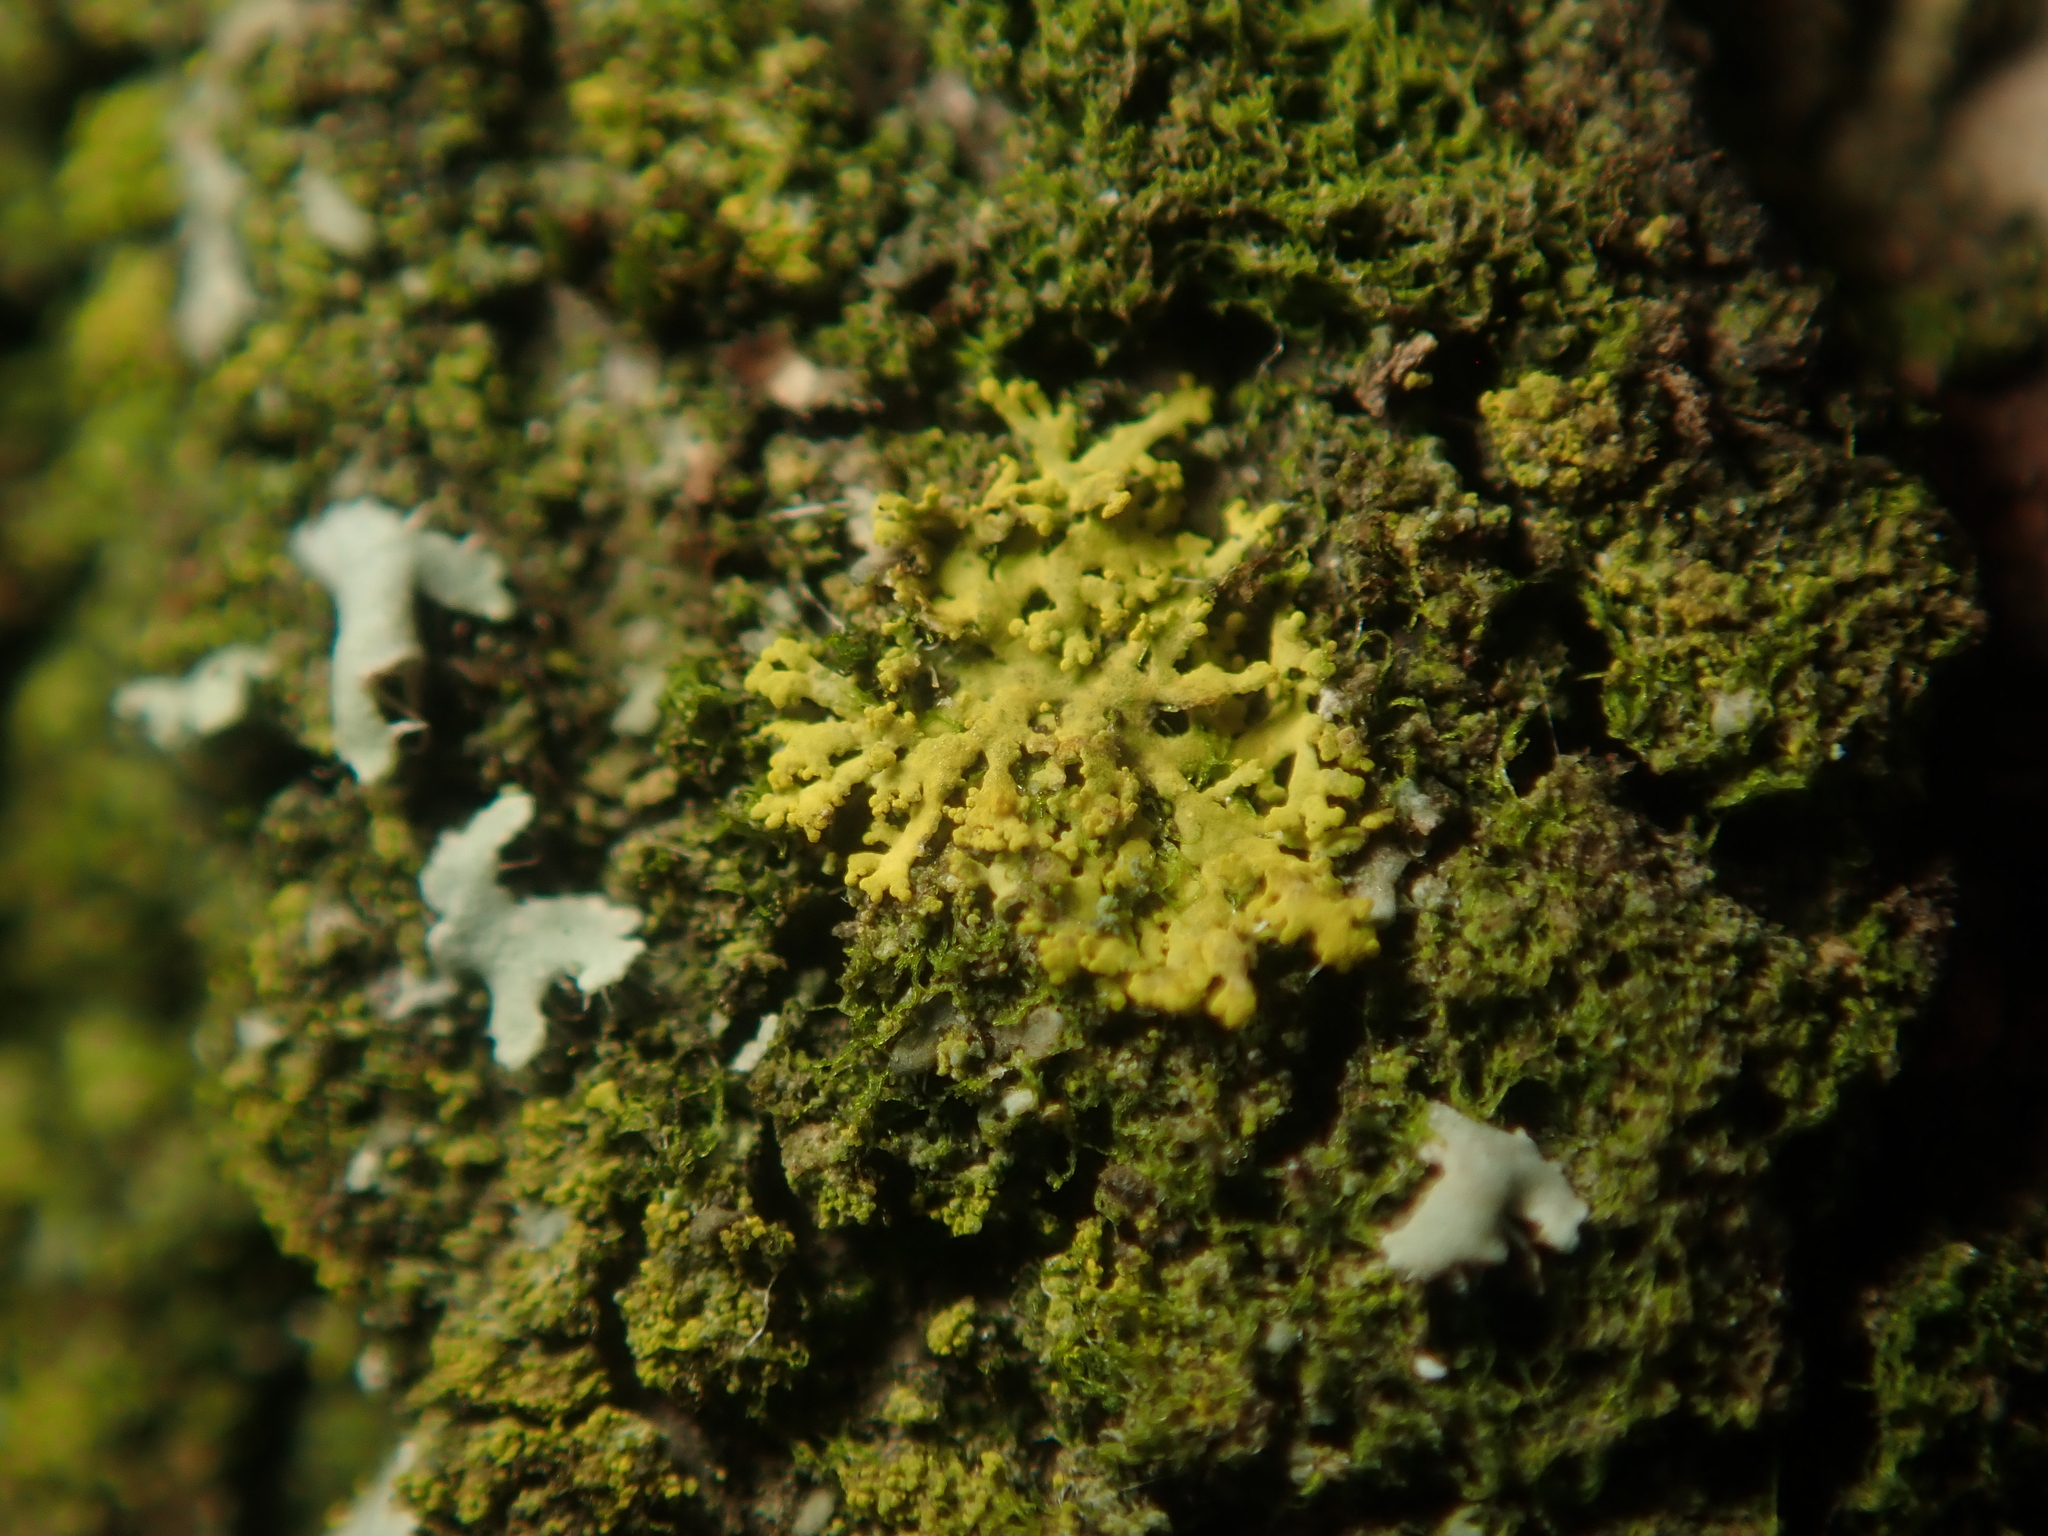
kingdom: Fungi
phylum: Ascomycota
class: Candelariomycetes
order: Candelariales
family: Candelariaceae
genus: Candelaria
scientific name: Candelaria concolor
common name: Candleflame lichen
